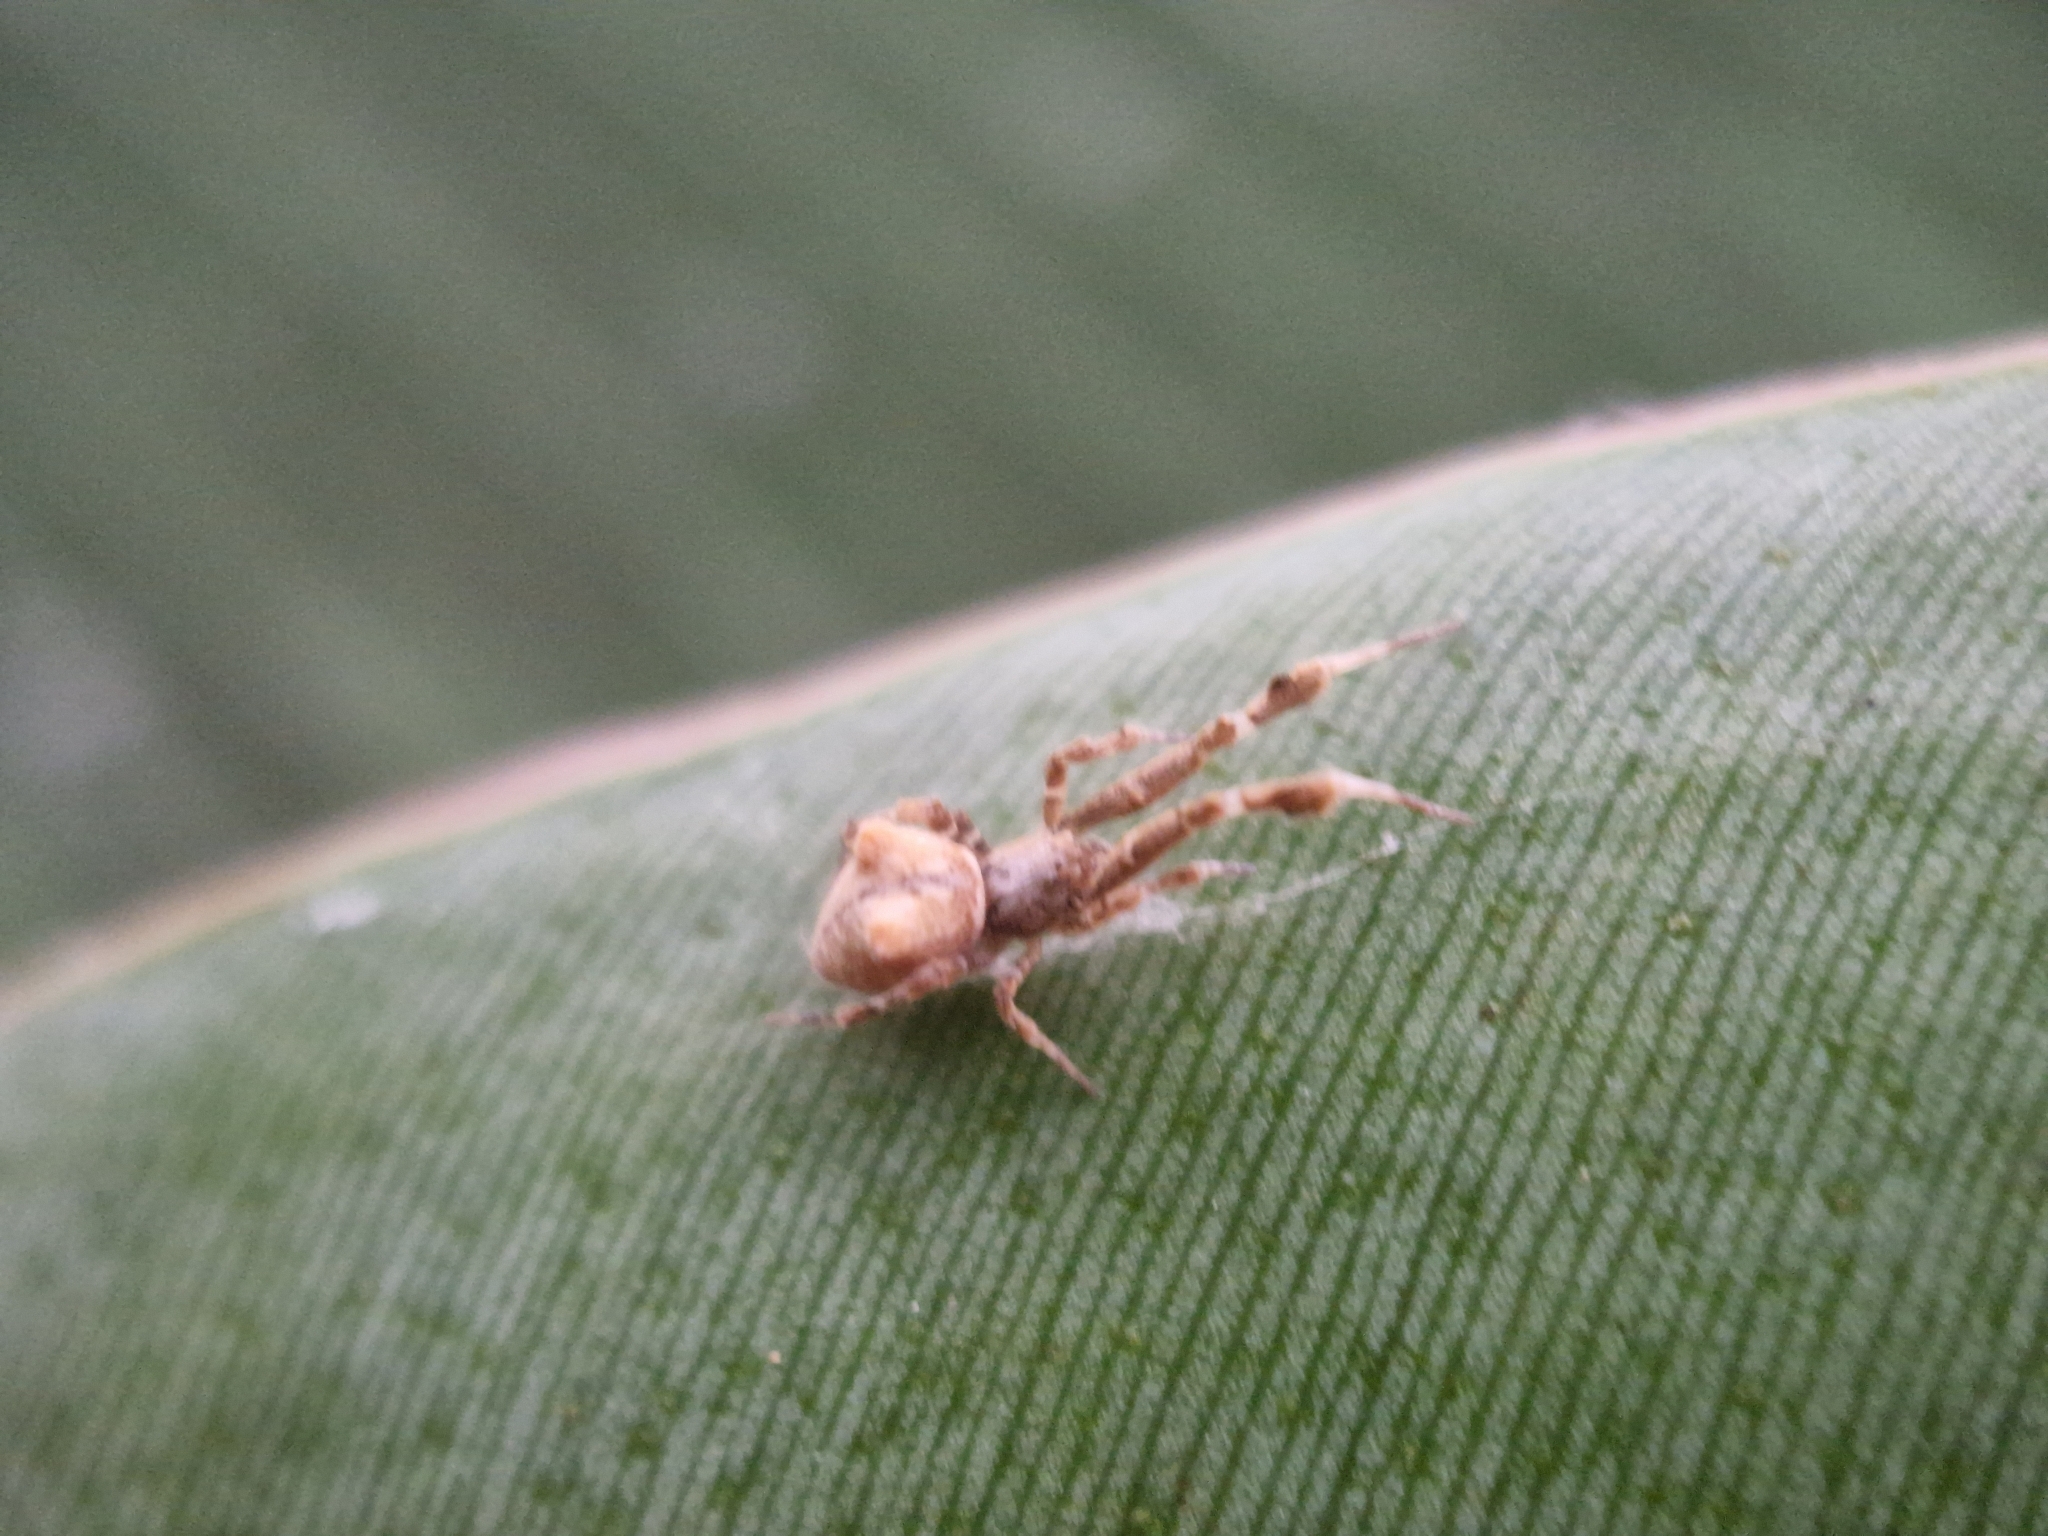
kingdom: Animalia
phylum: Arthropoda
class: Arachnida
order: Araneae
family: Uloboridae
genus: Uloborus
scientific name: Uloborus plumipes
